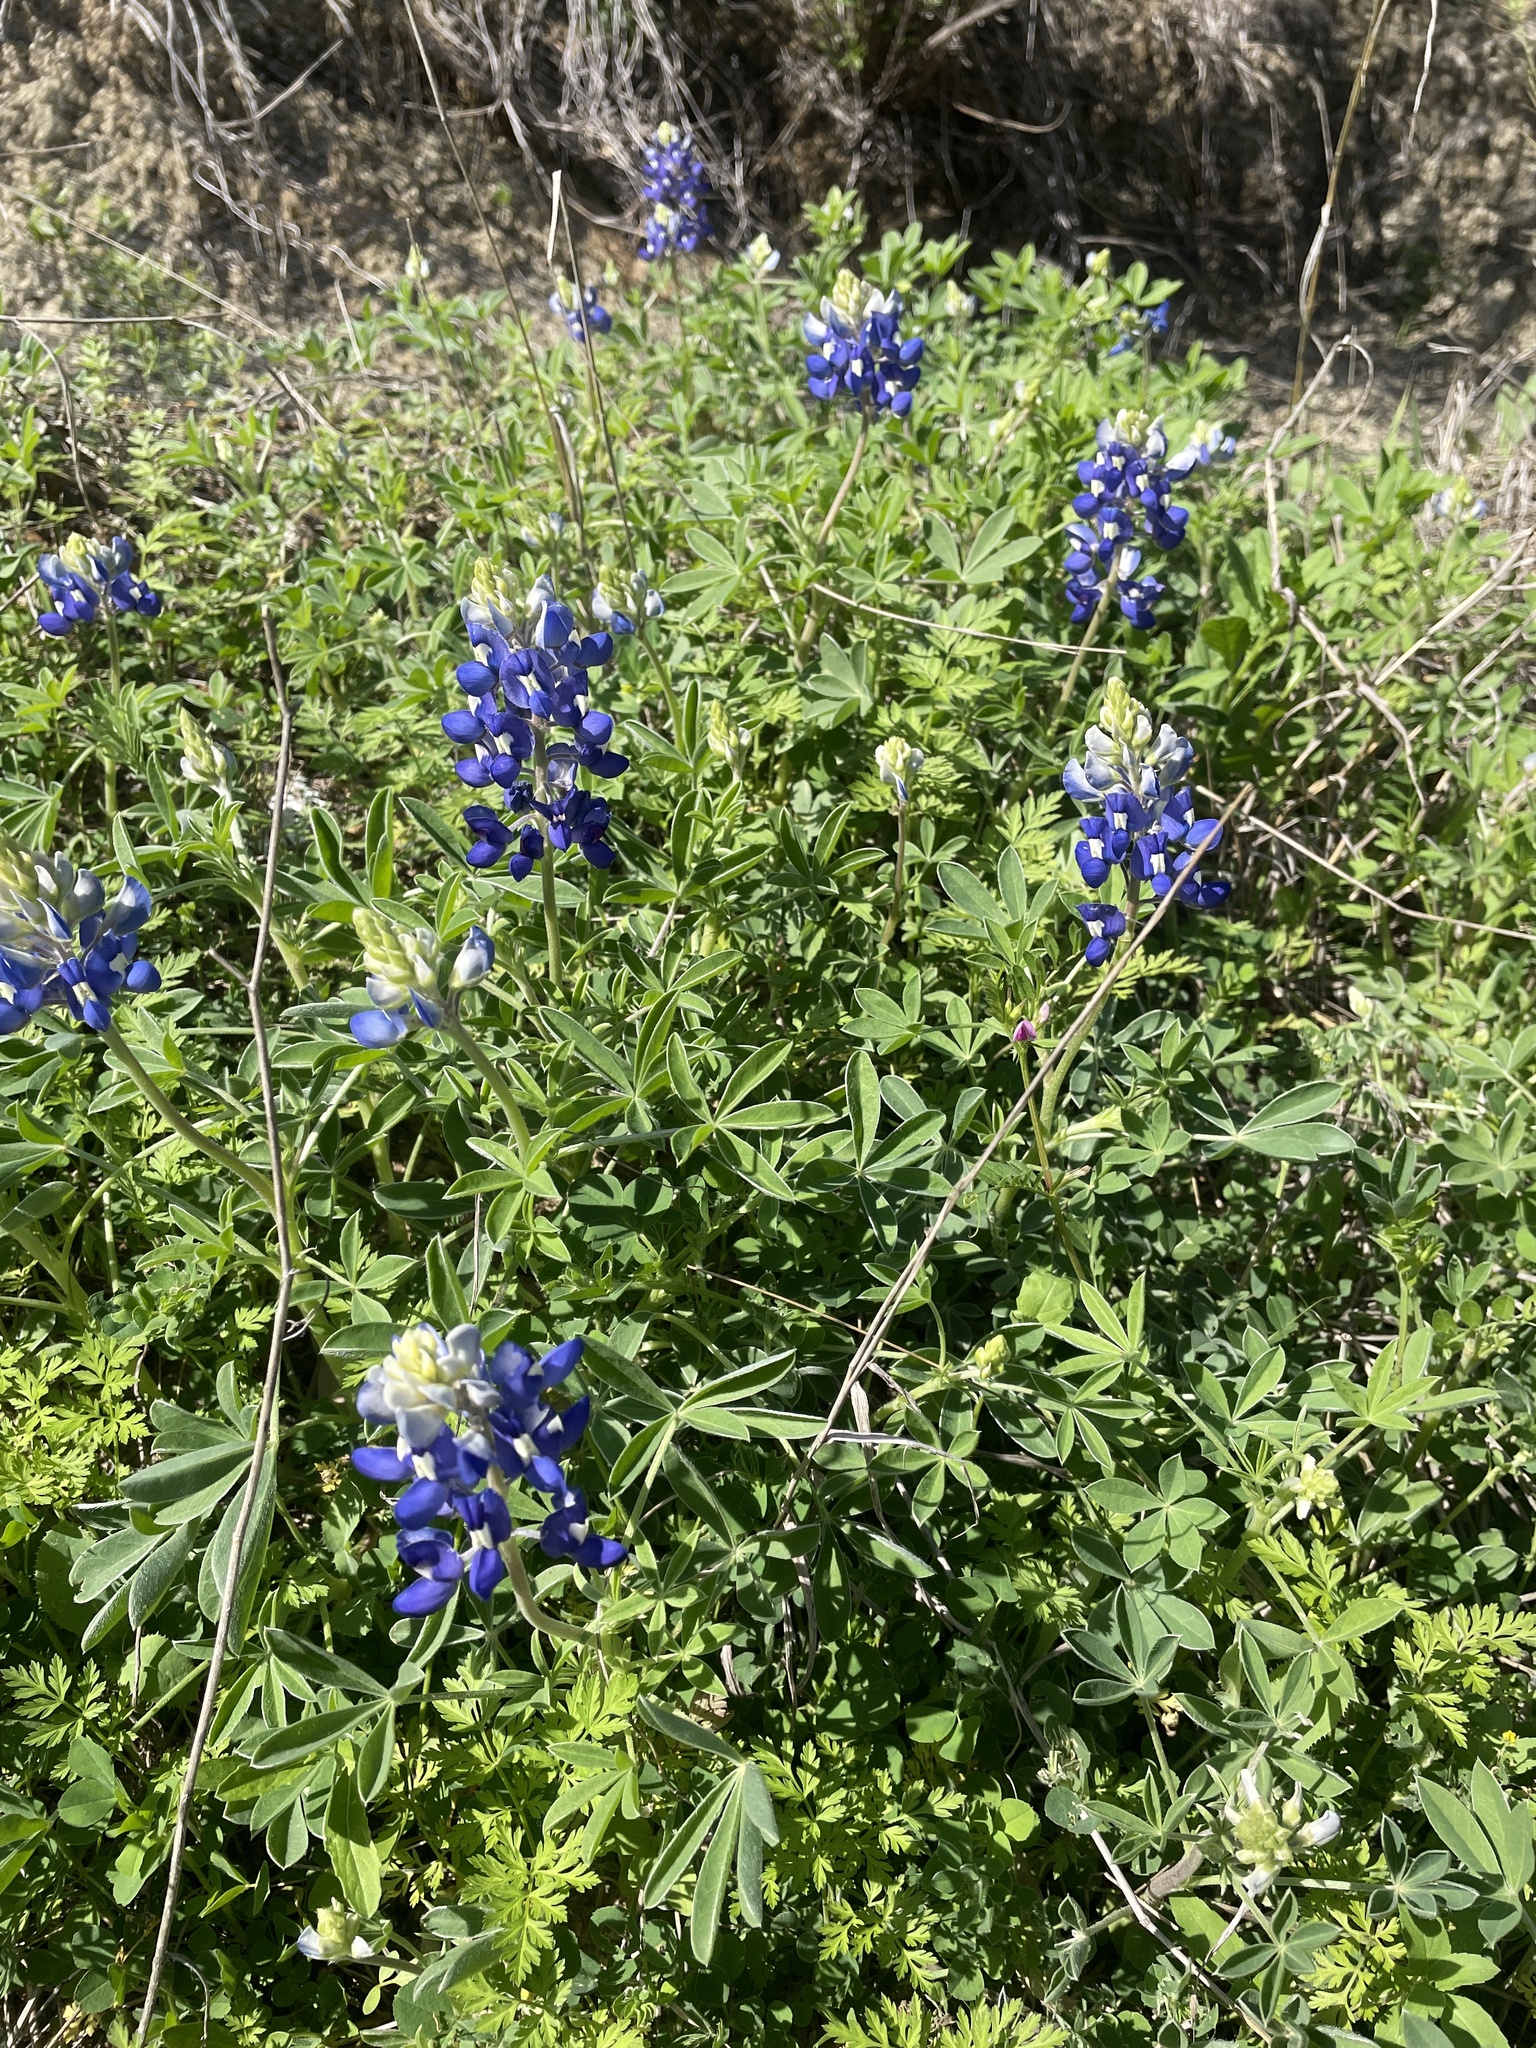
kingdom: Plantae
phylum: Tracheophyta
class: Magnoliopsida
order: Fabales
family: Fabaceae
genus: Lupinus
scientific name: Lupinus texensis
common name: Texas bluebonnet
